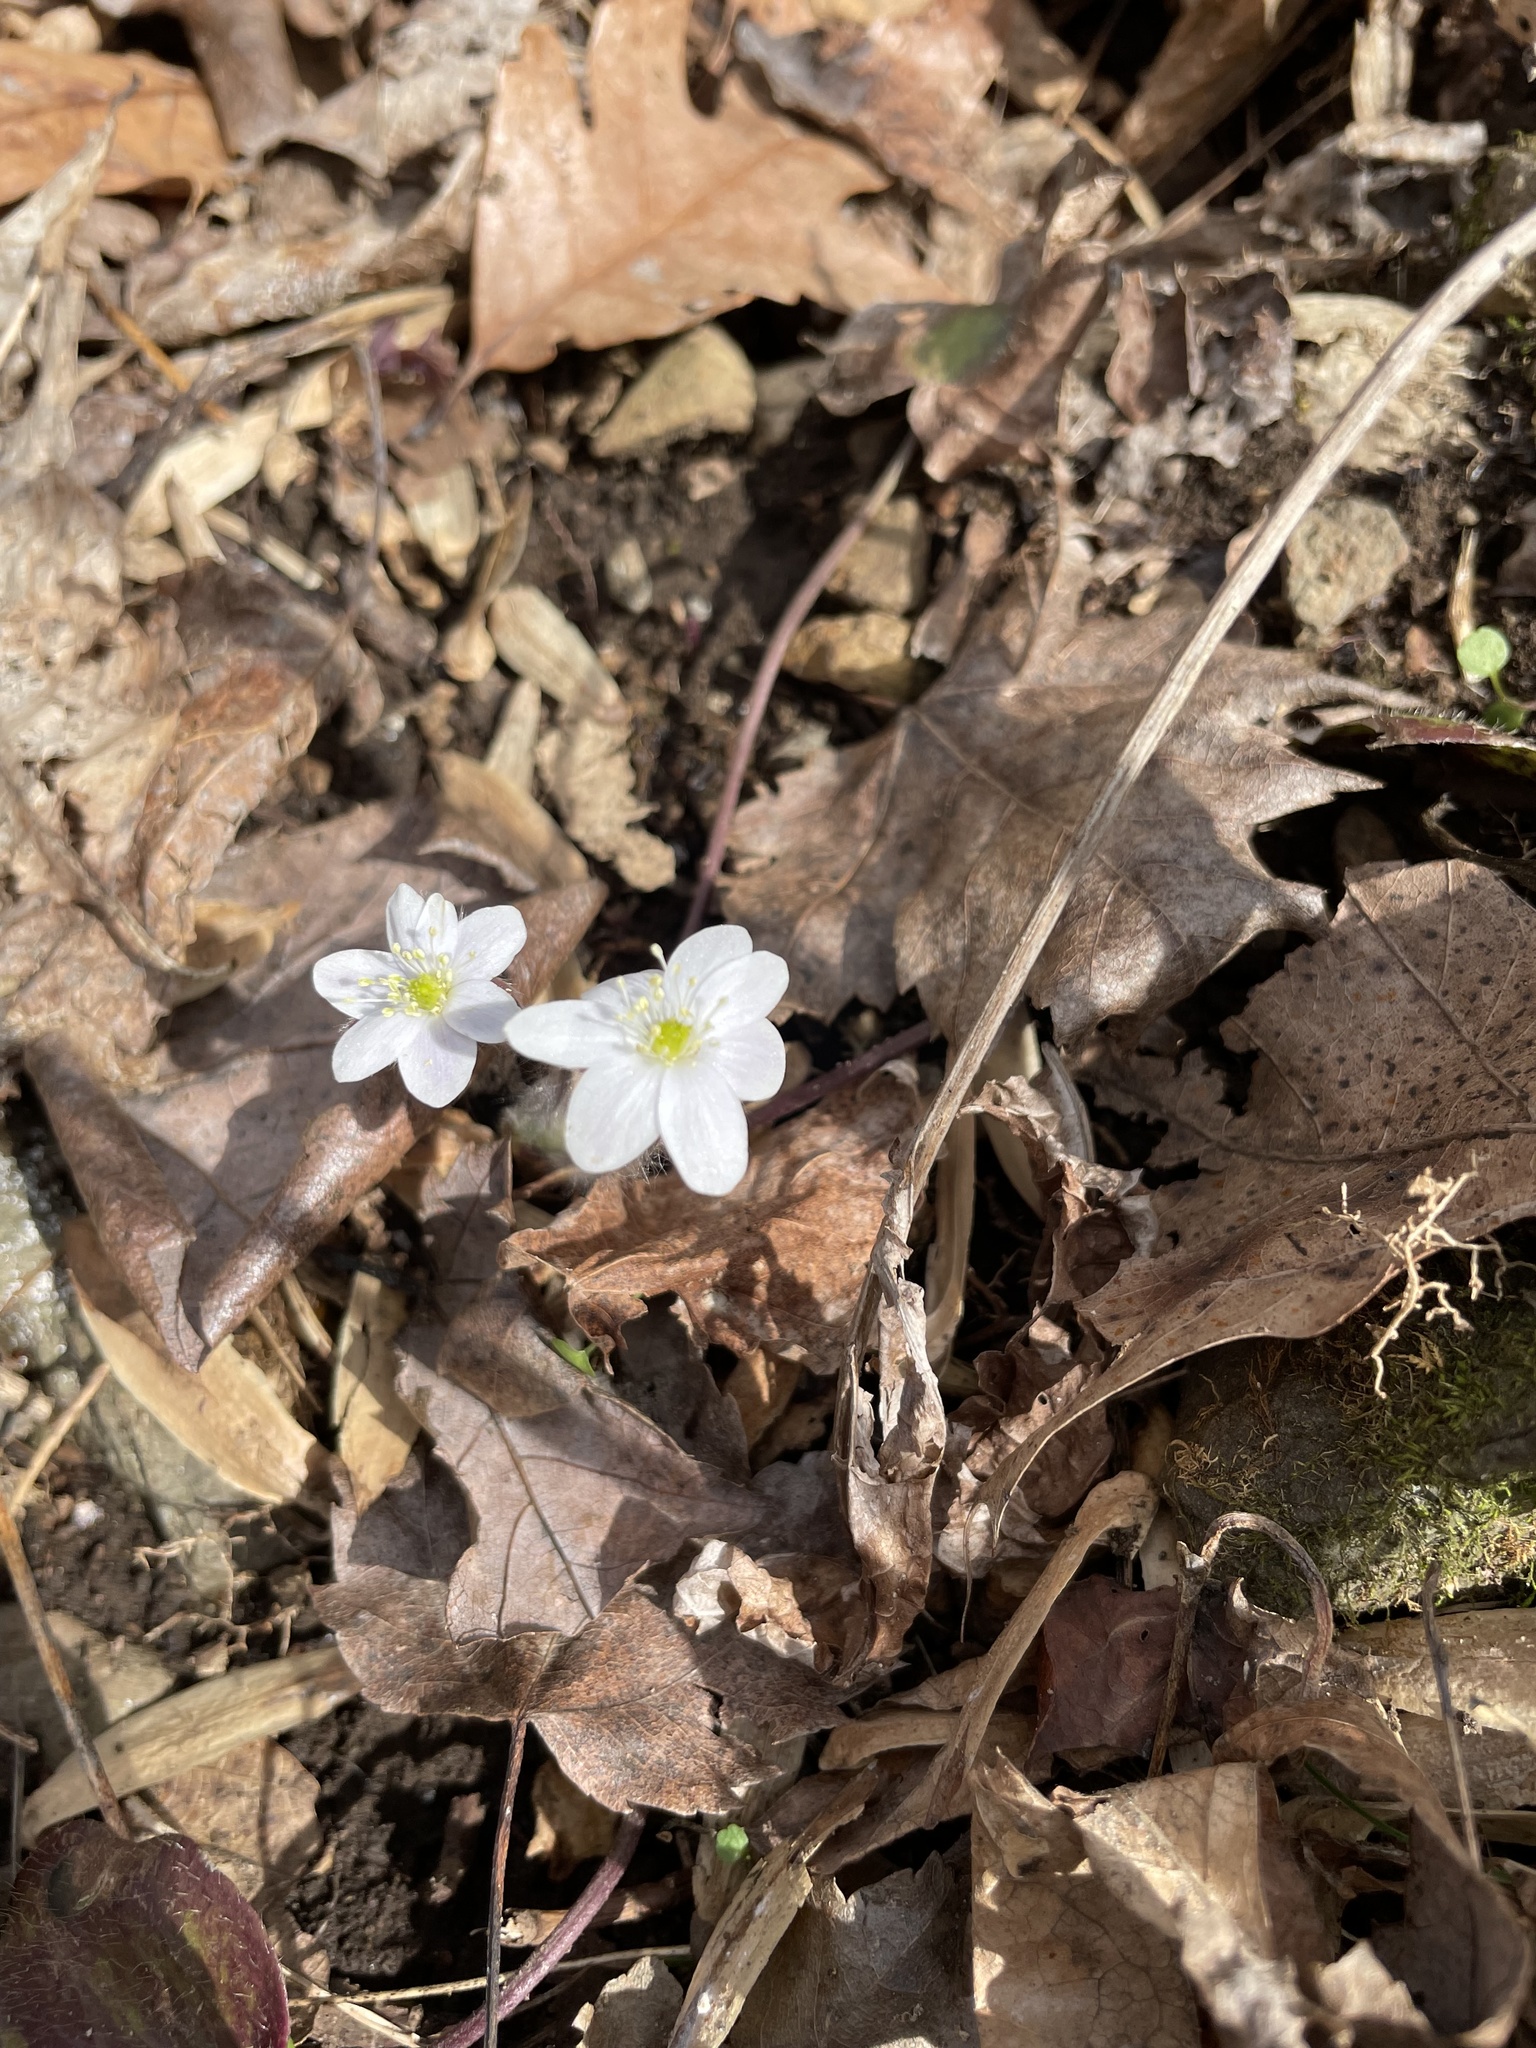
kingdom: Plantae
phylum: Tracheophyta
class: Magnoliopsida
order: Ranunculales
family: Ranunculaceae
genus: Hepatica
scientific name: Hepatica americana
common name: American hepatica
